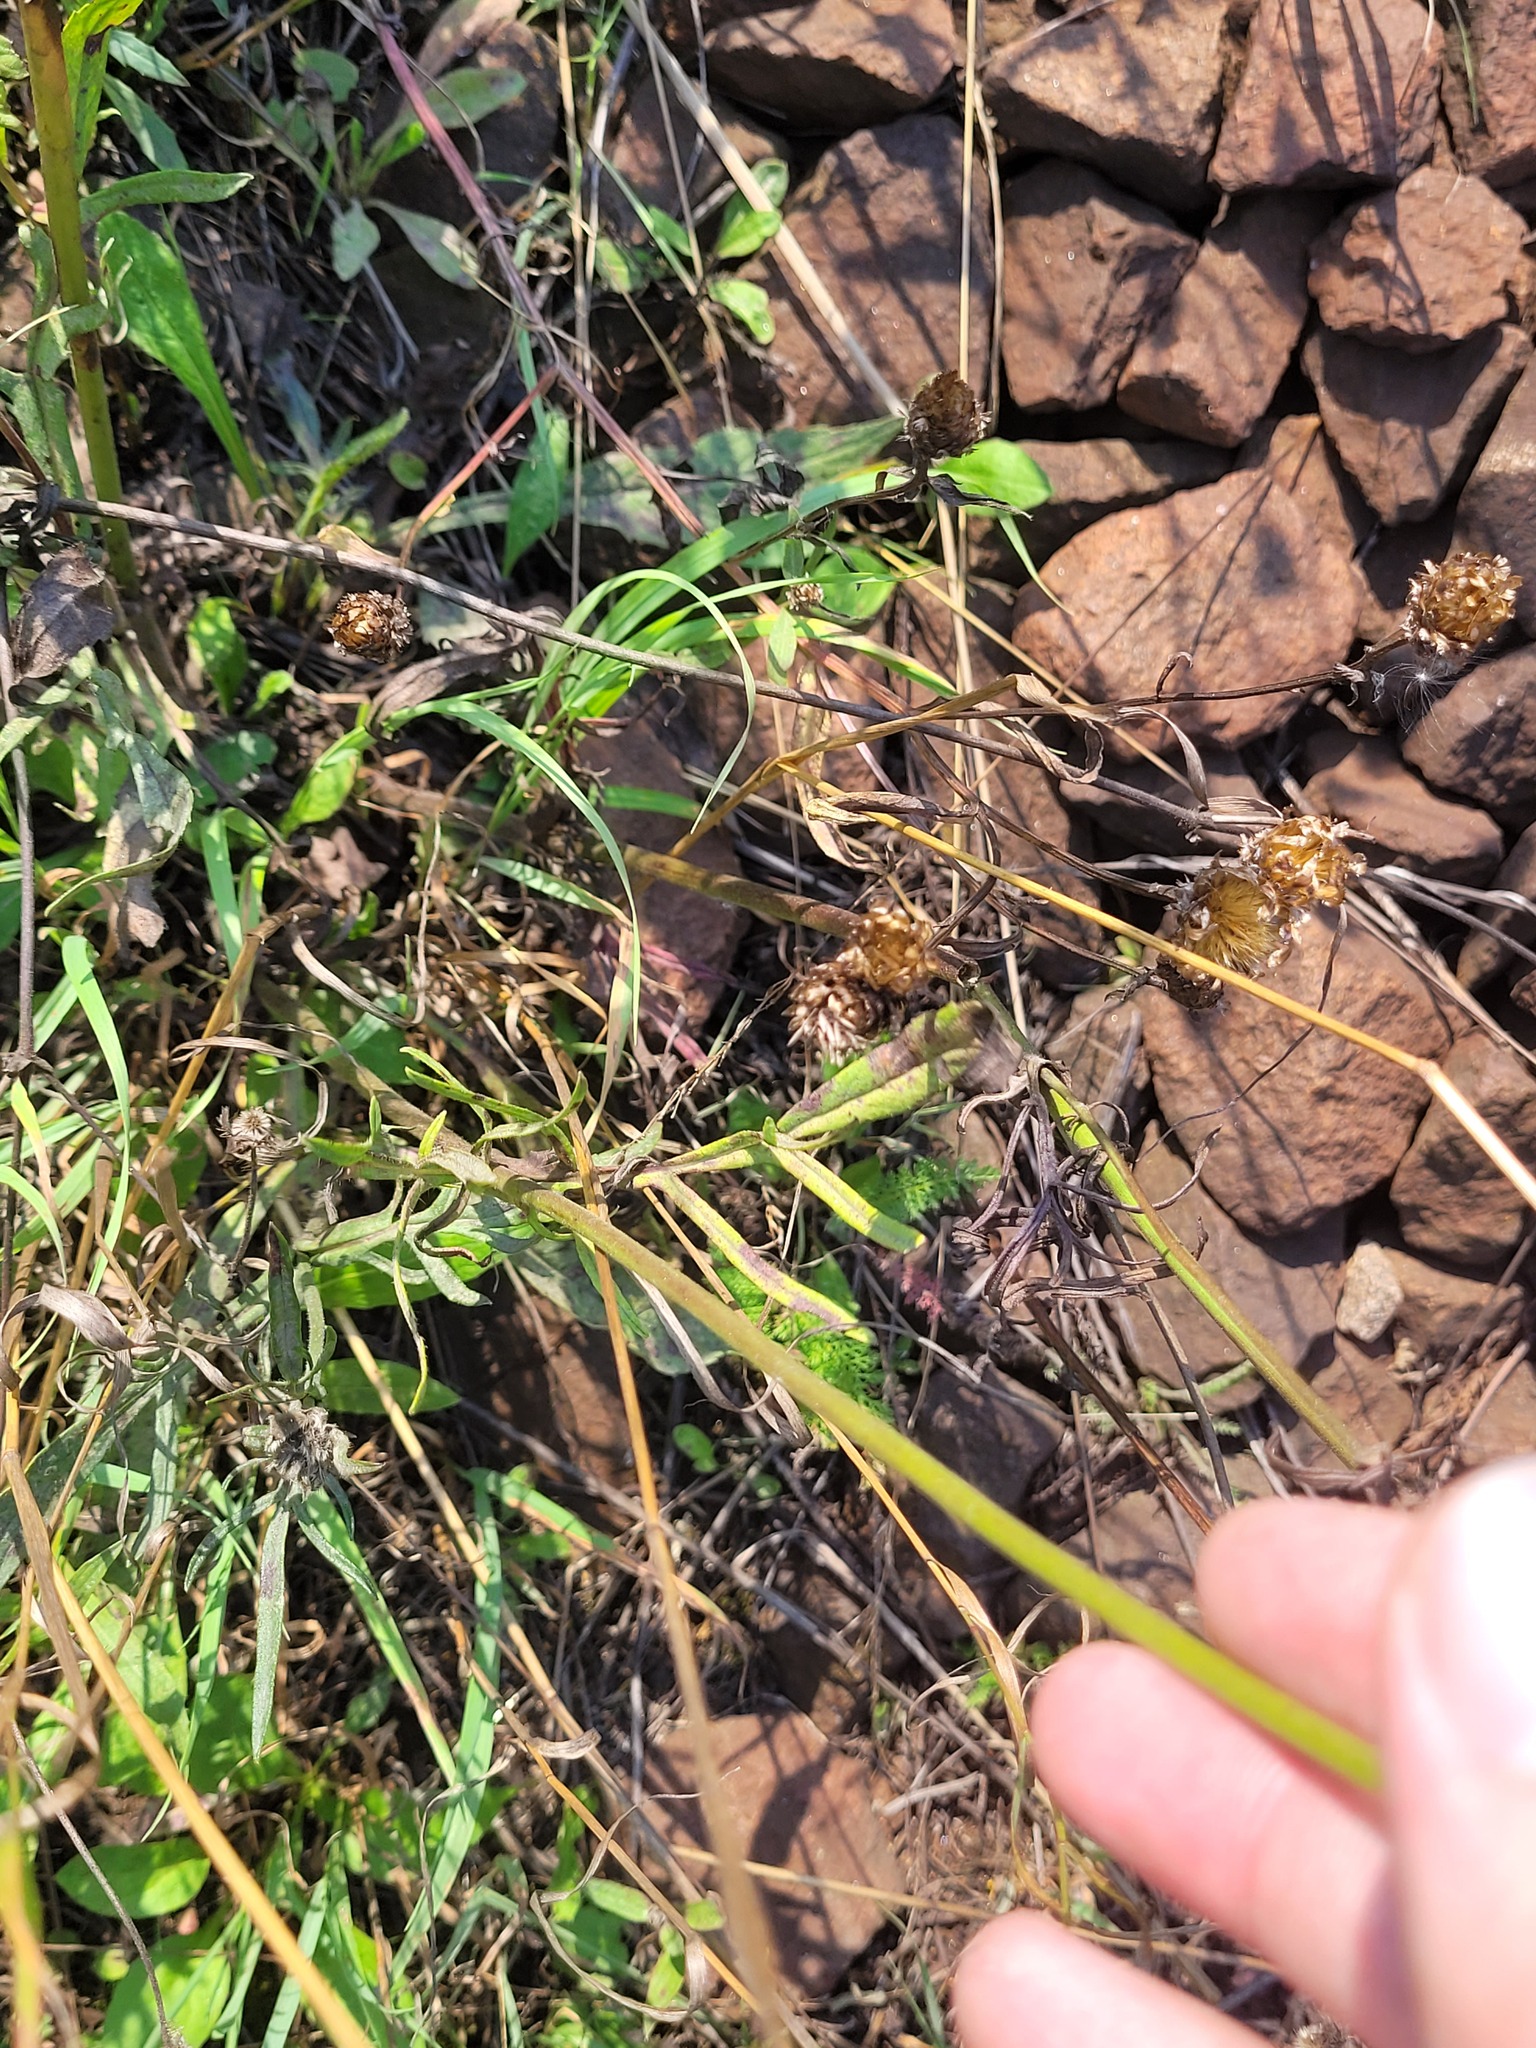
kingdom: Plantae
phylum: Tracheophyta
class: Magnoliopsida
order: Dipsacales
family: Caprifoliaceae
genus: Knautia
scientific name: Knautia arvensis
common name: Field scabiosa
